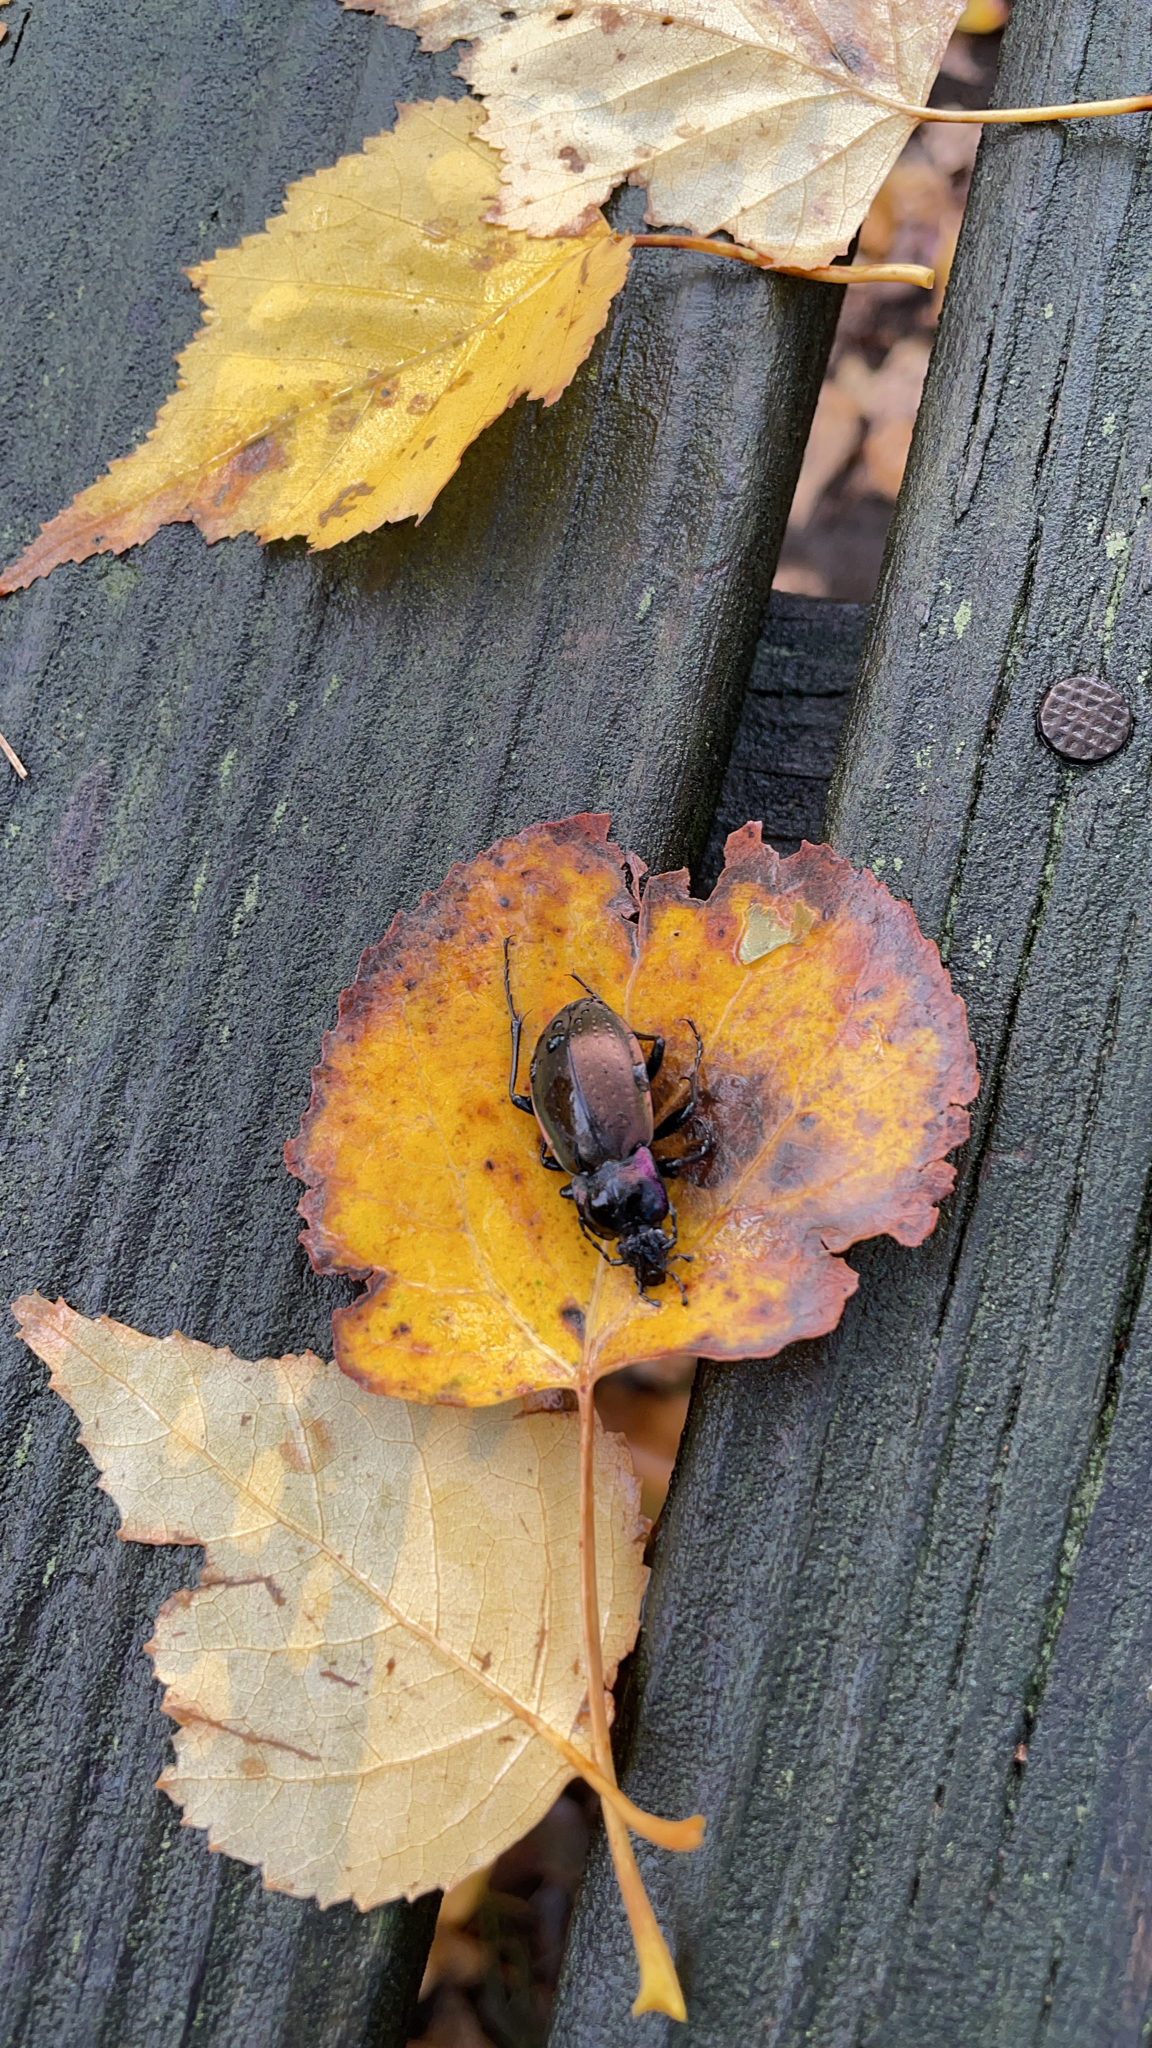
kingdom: Animalia
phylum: Arthropoda
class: Insecta
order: Coleoptera
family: Carabidae
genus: Carabus
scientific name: Carabus nemoralis
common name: European ground beetle
